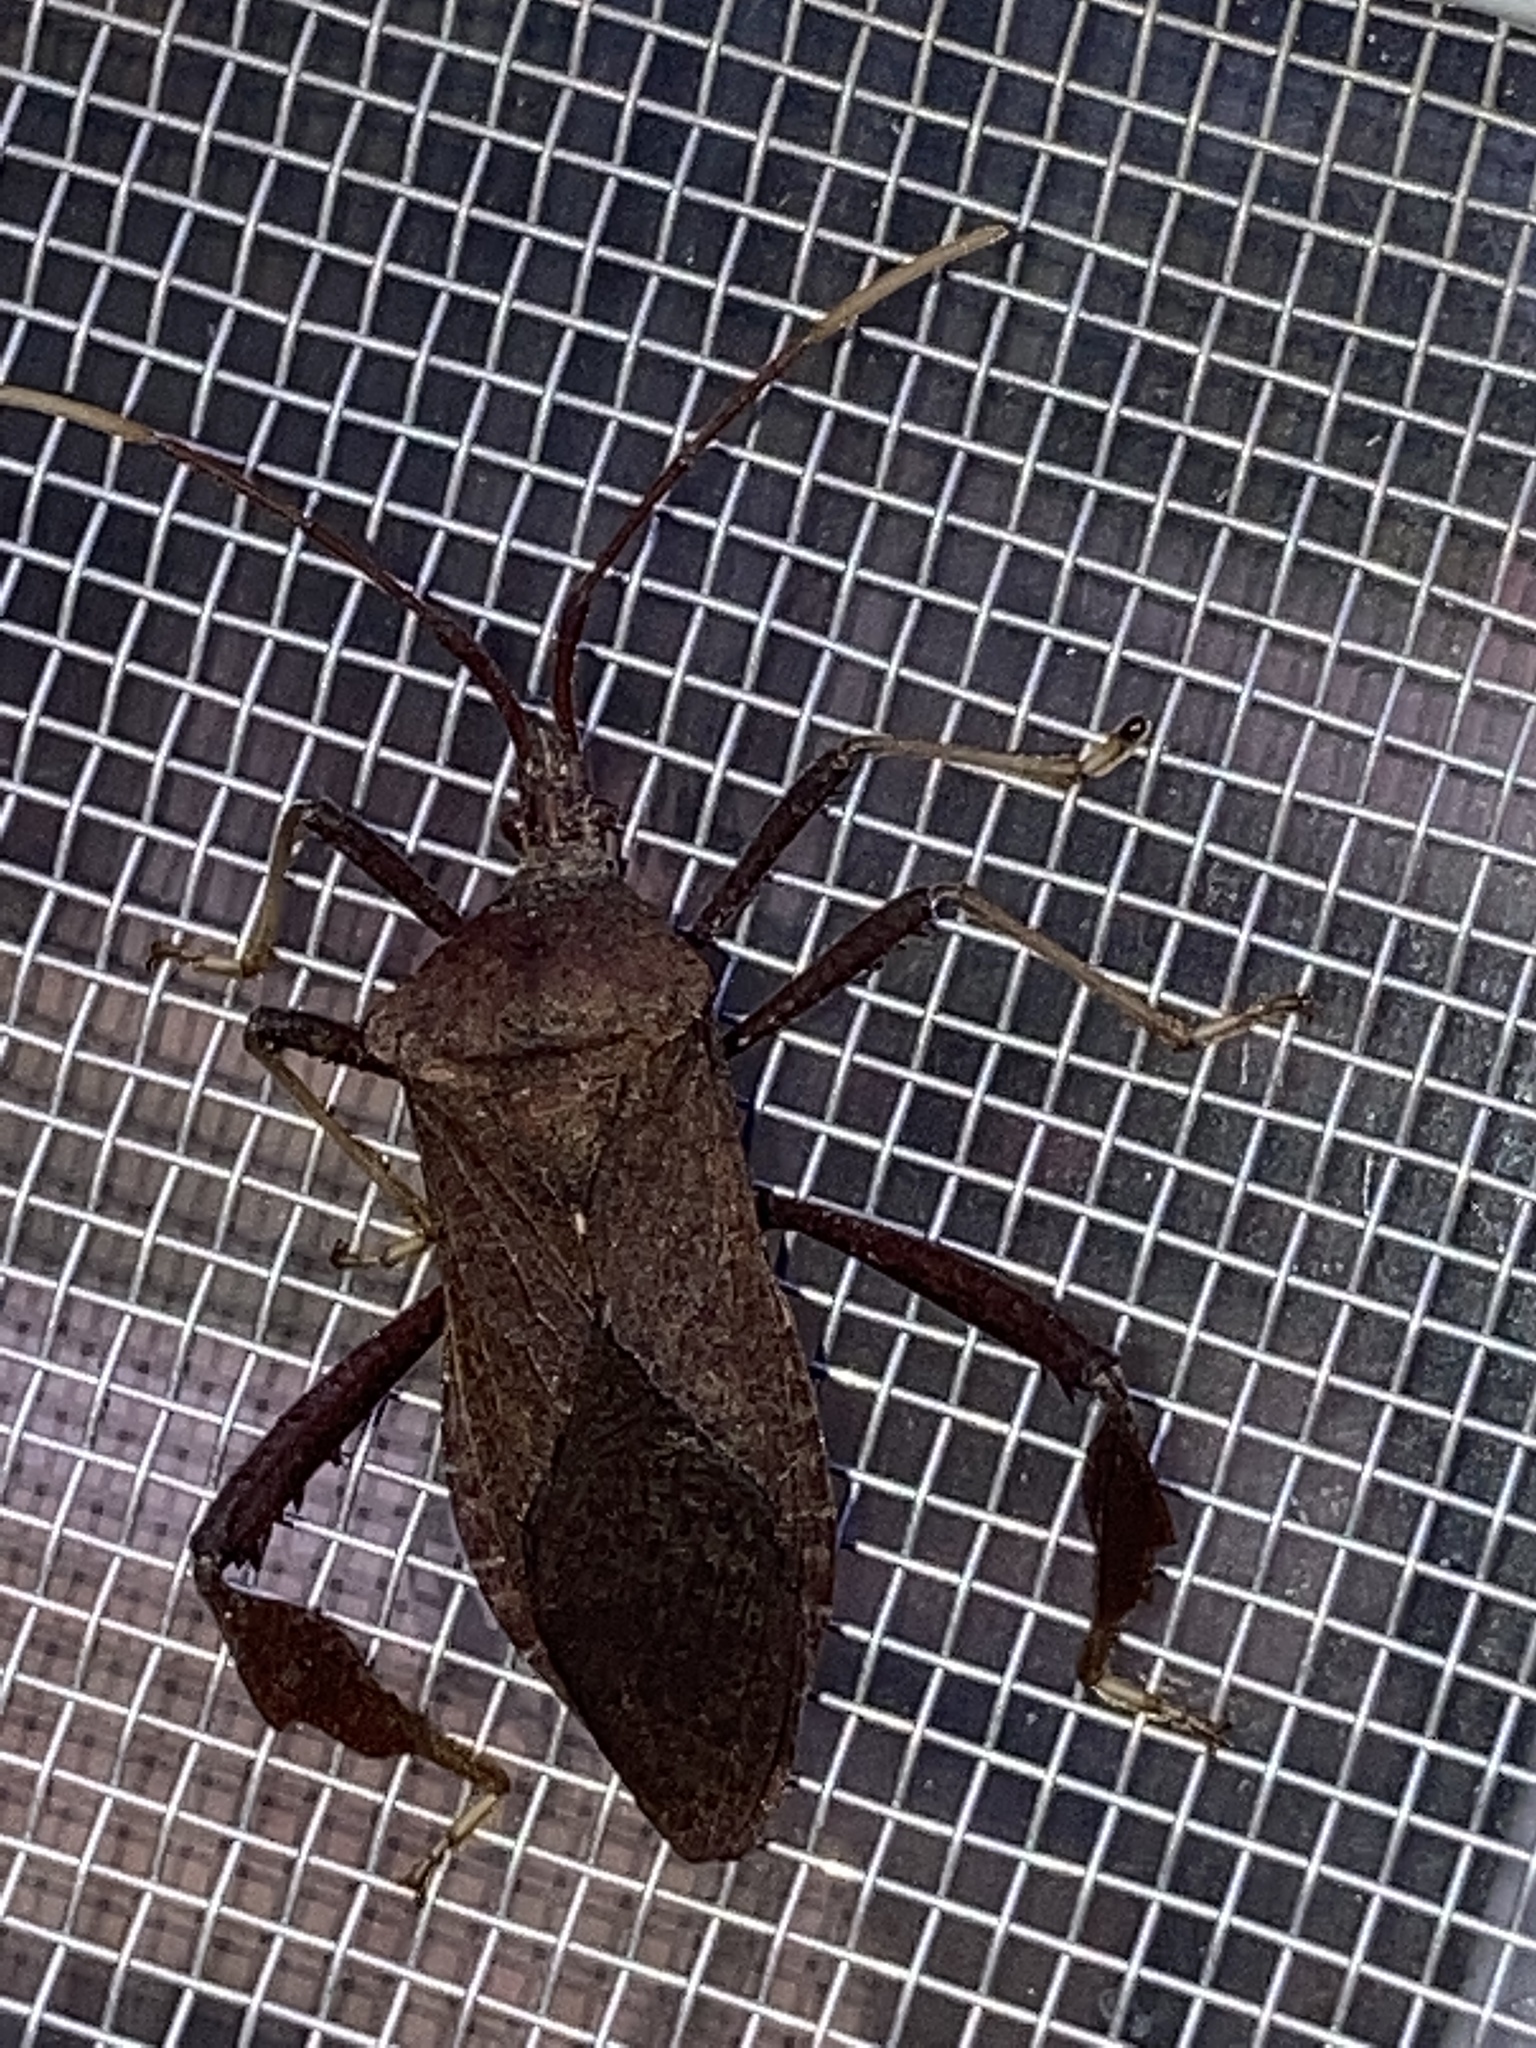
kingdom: Animalia
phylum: Arthropoda
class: Insecta
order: Hemiptera
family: Coreidae
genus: Acanthocephala
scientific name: Acanthocephala terminalis
